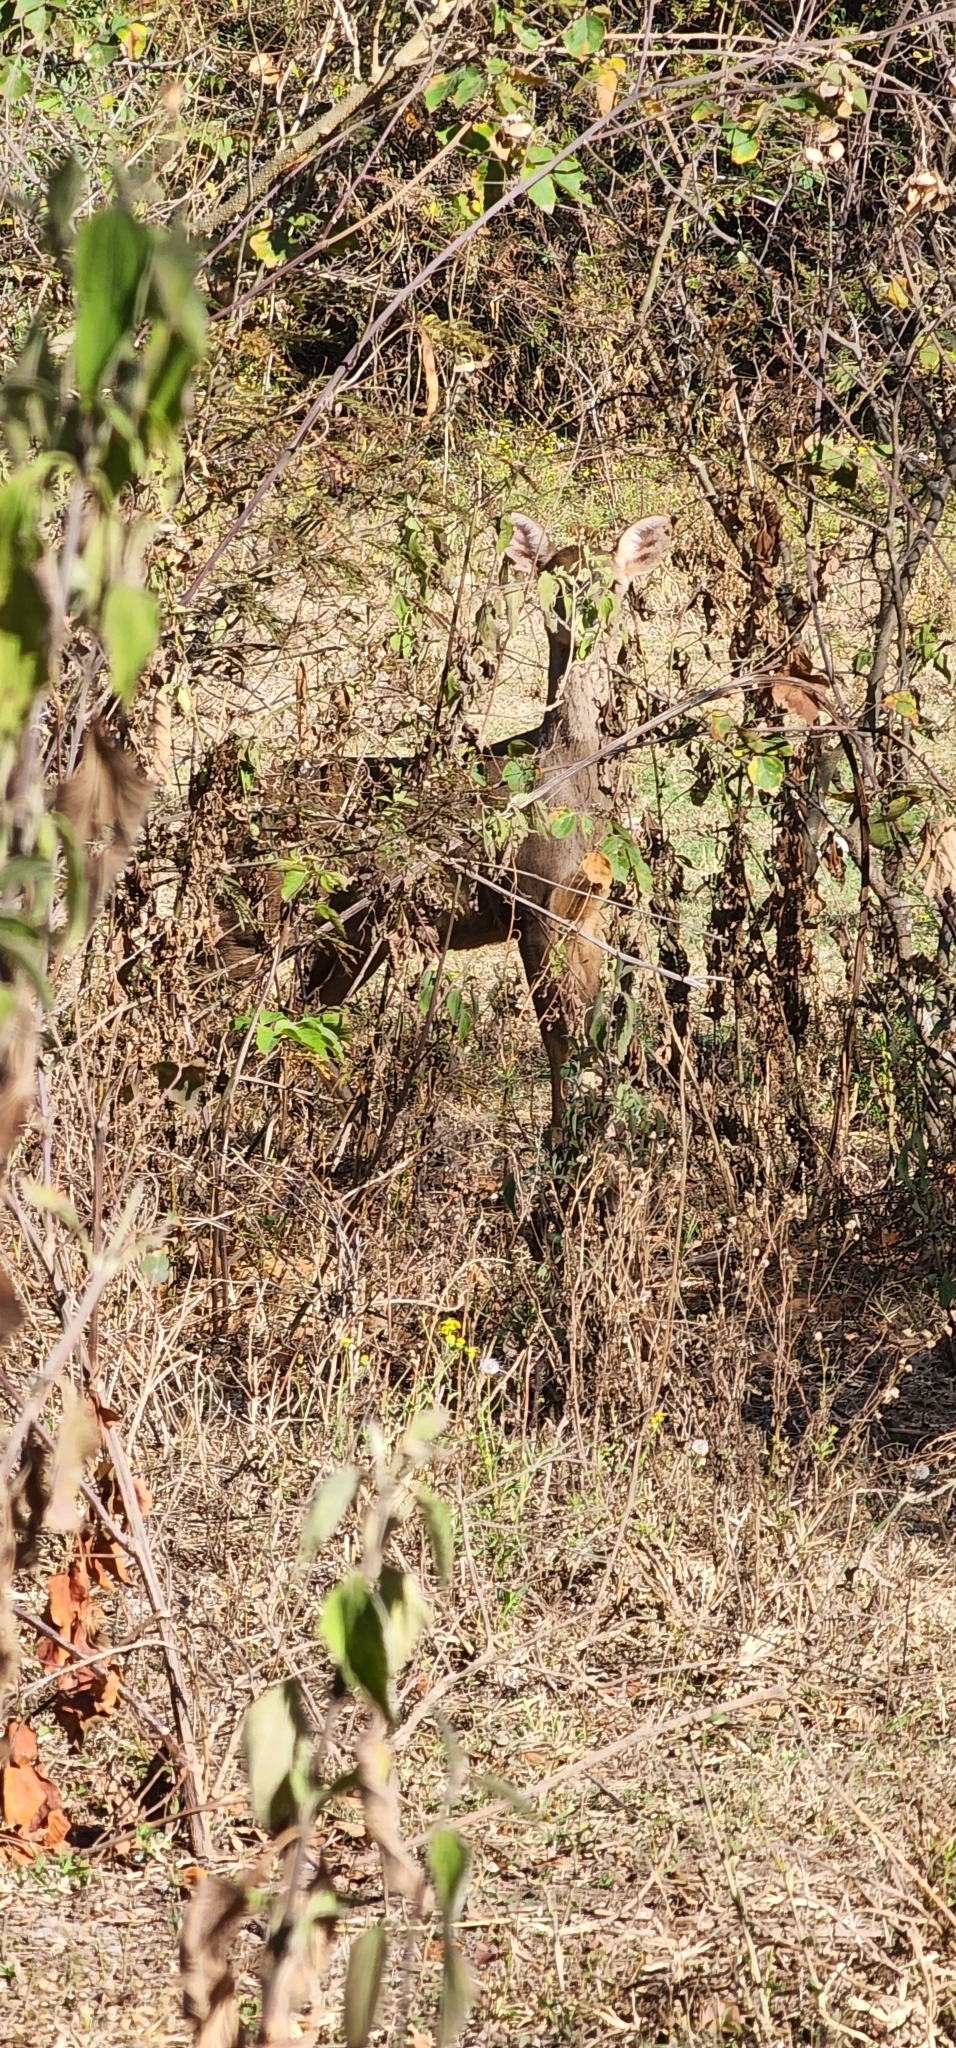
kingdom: Animalia
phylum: Chordata
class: Mammalia
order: Artiodactyla
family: Cervidae
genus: Mazama
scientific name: Mazama gouazoubira
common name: Gray brocket
